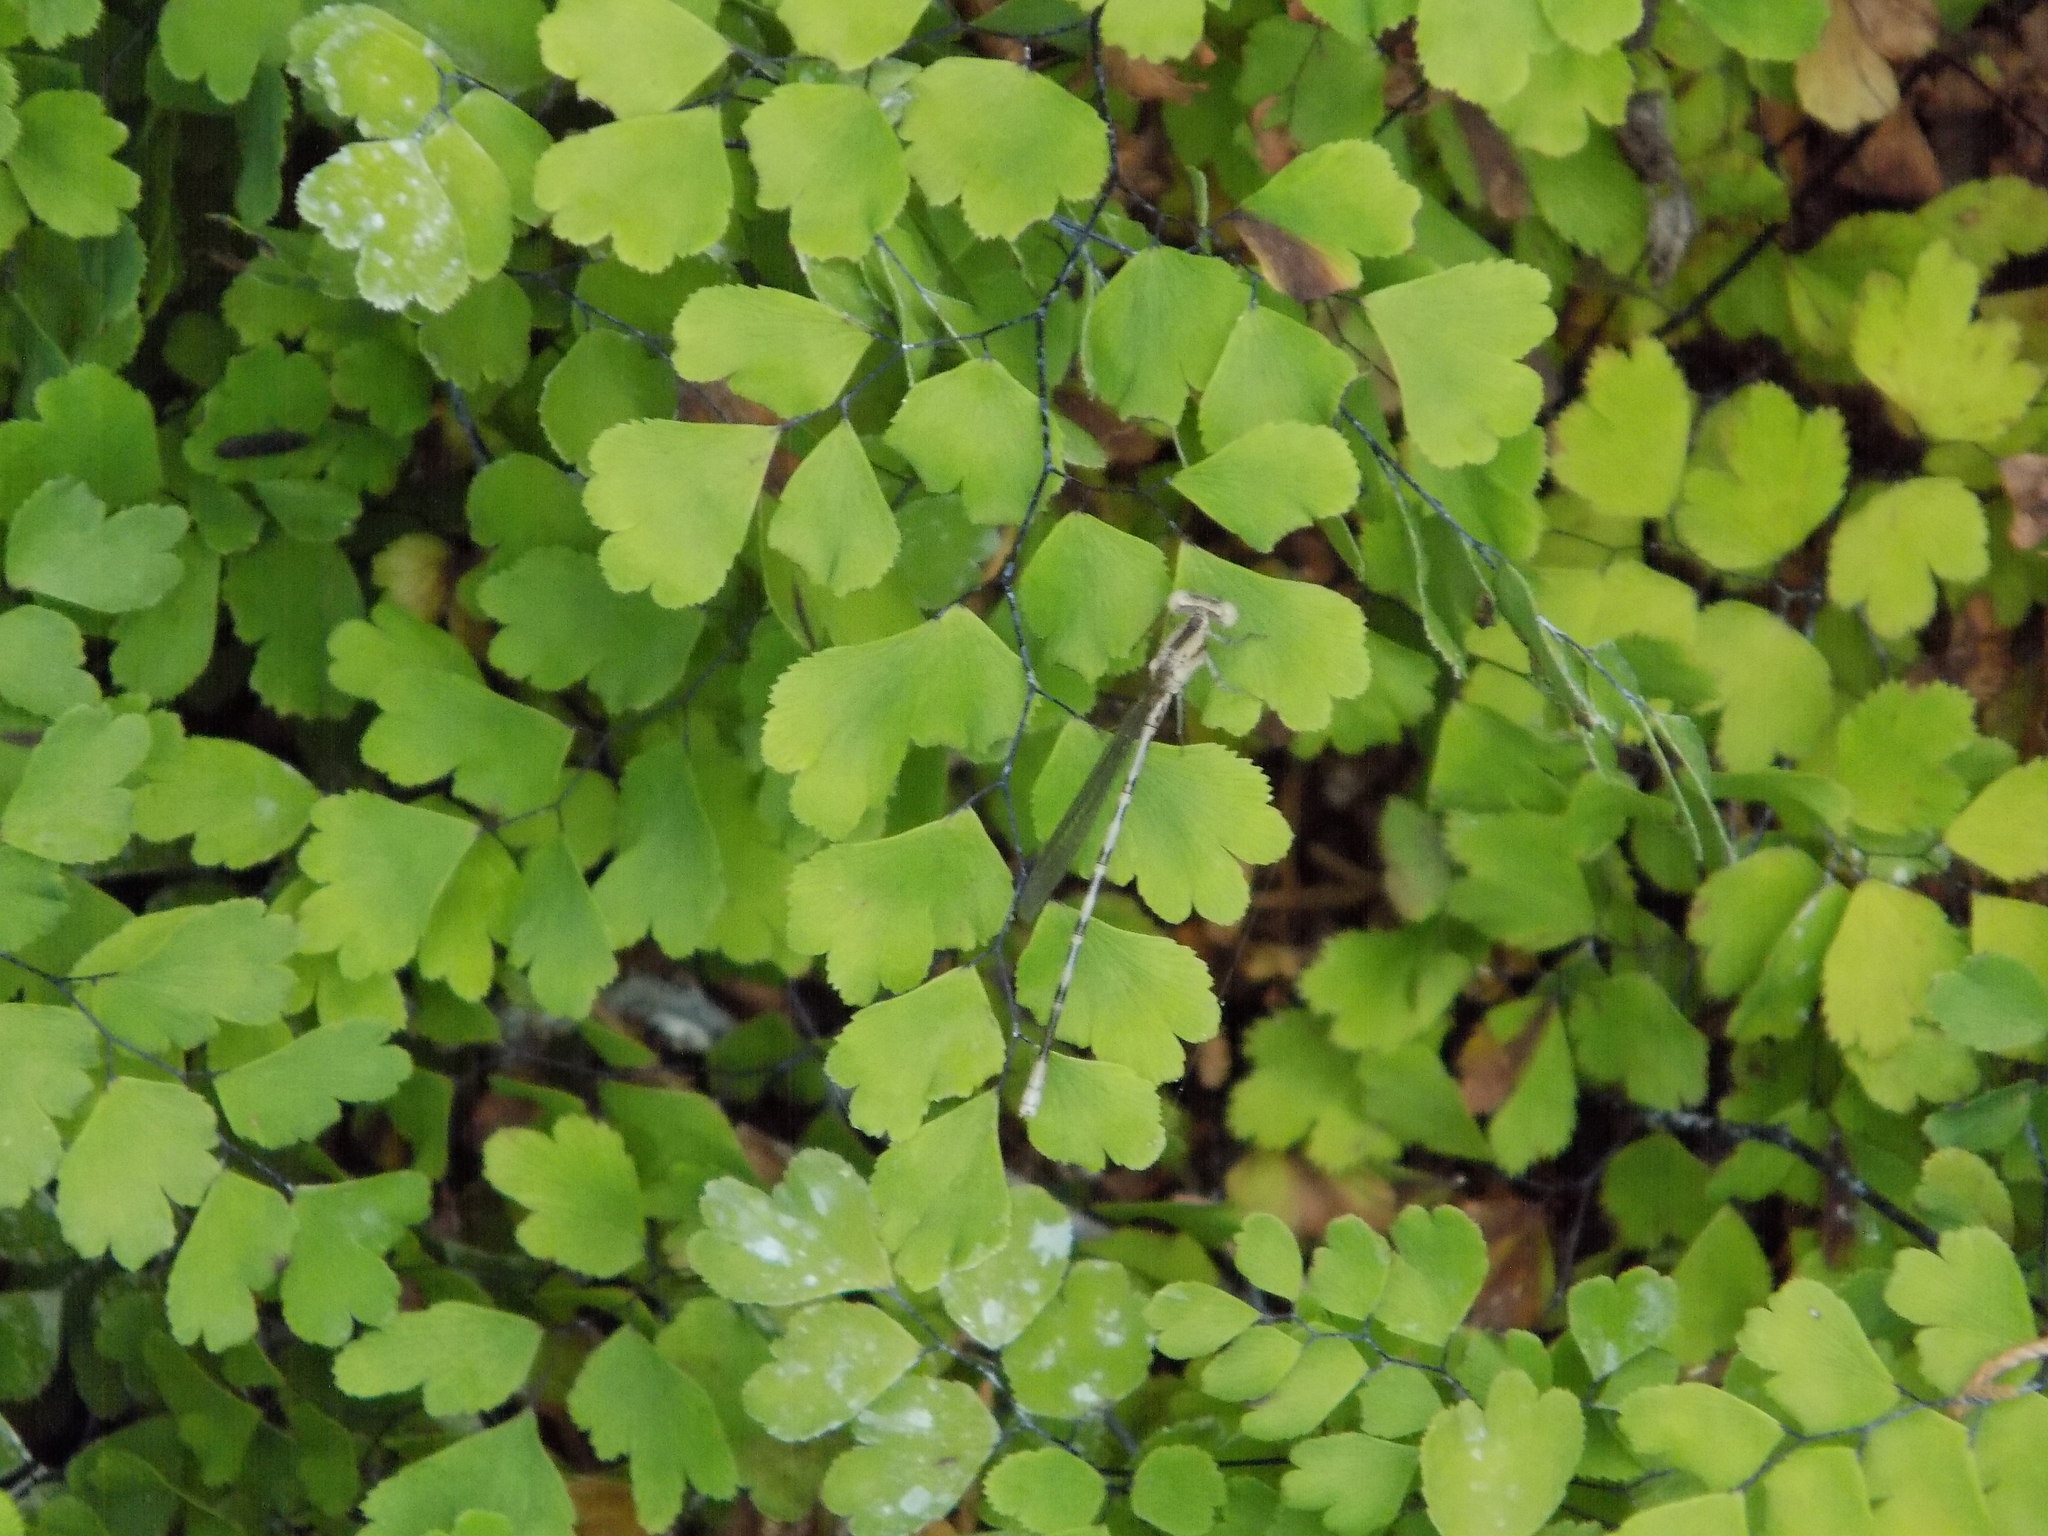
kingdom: Animalia
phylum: Arthropoda
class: Insecta
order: Odonata
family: Coenagrionidae
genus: Argia
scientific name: Argia funebris
